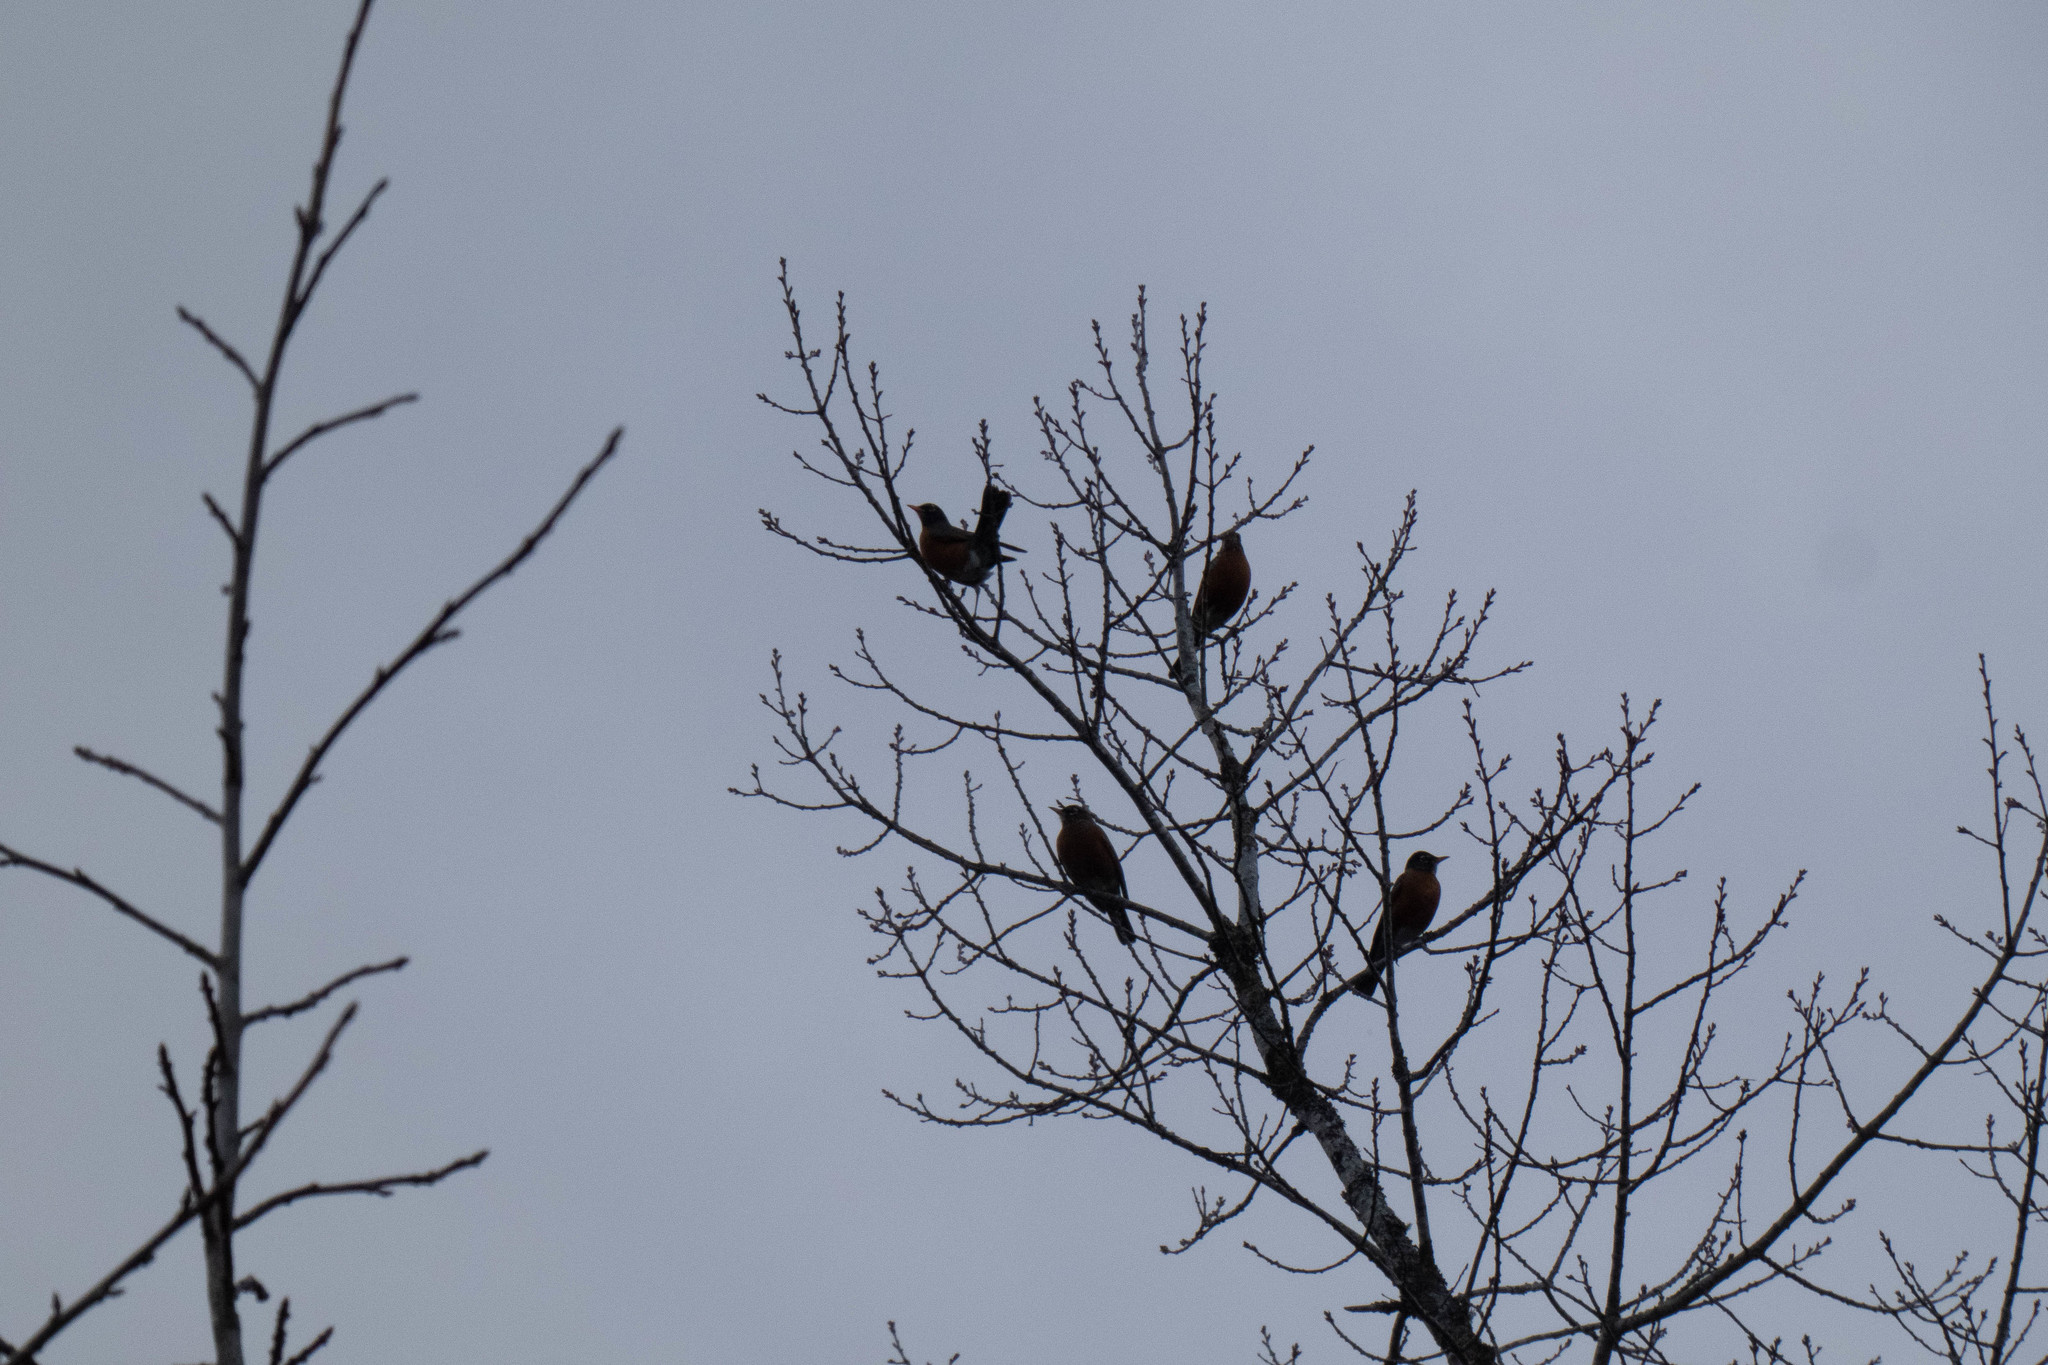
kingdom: Animalia
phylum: Chordata
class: Aves
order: Passeriformes
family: Turdidae
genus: Turdus
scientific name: Turdus migratorius
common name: American robin
